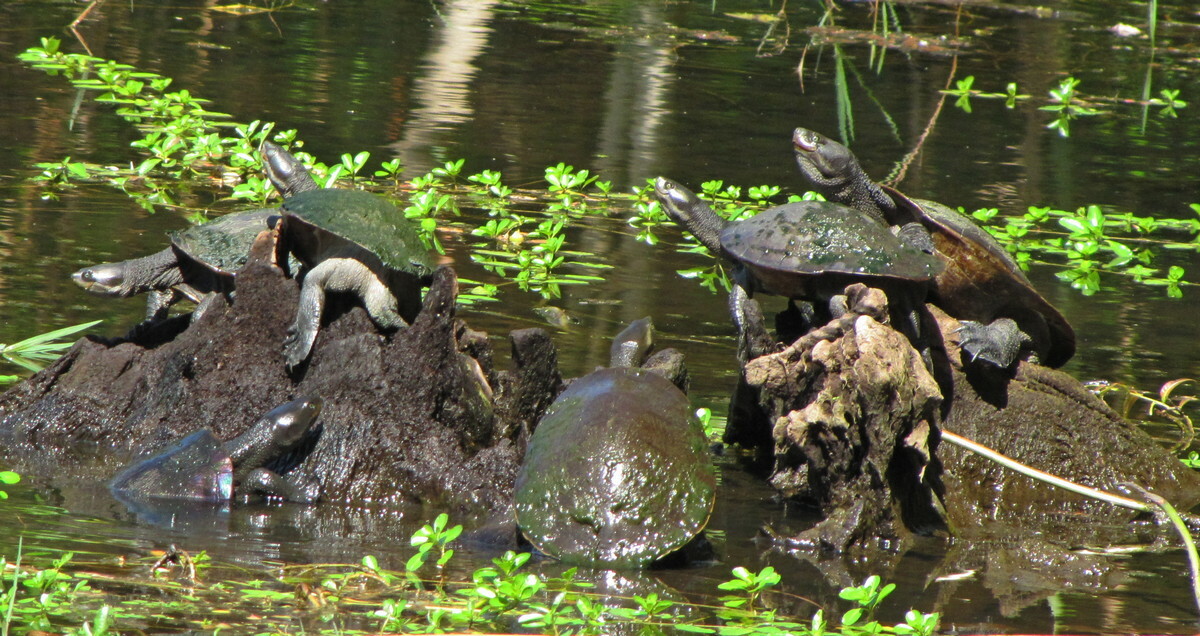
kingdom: Animalia
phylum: Chordata
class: Testudines
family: Chelidae
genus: Emydura
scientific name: Emydura macquarii
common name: Murray river turtle
